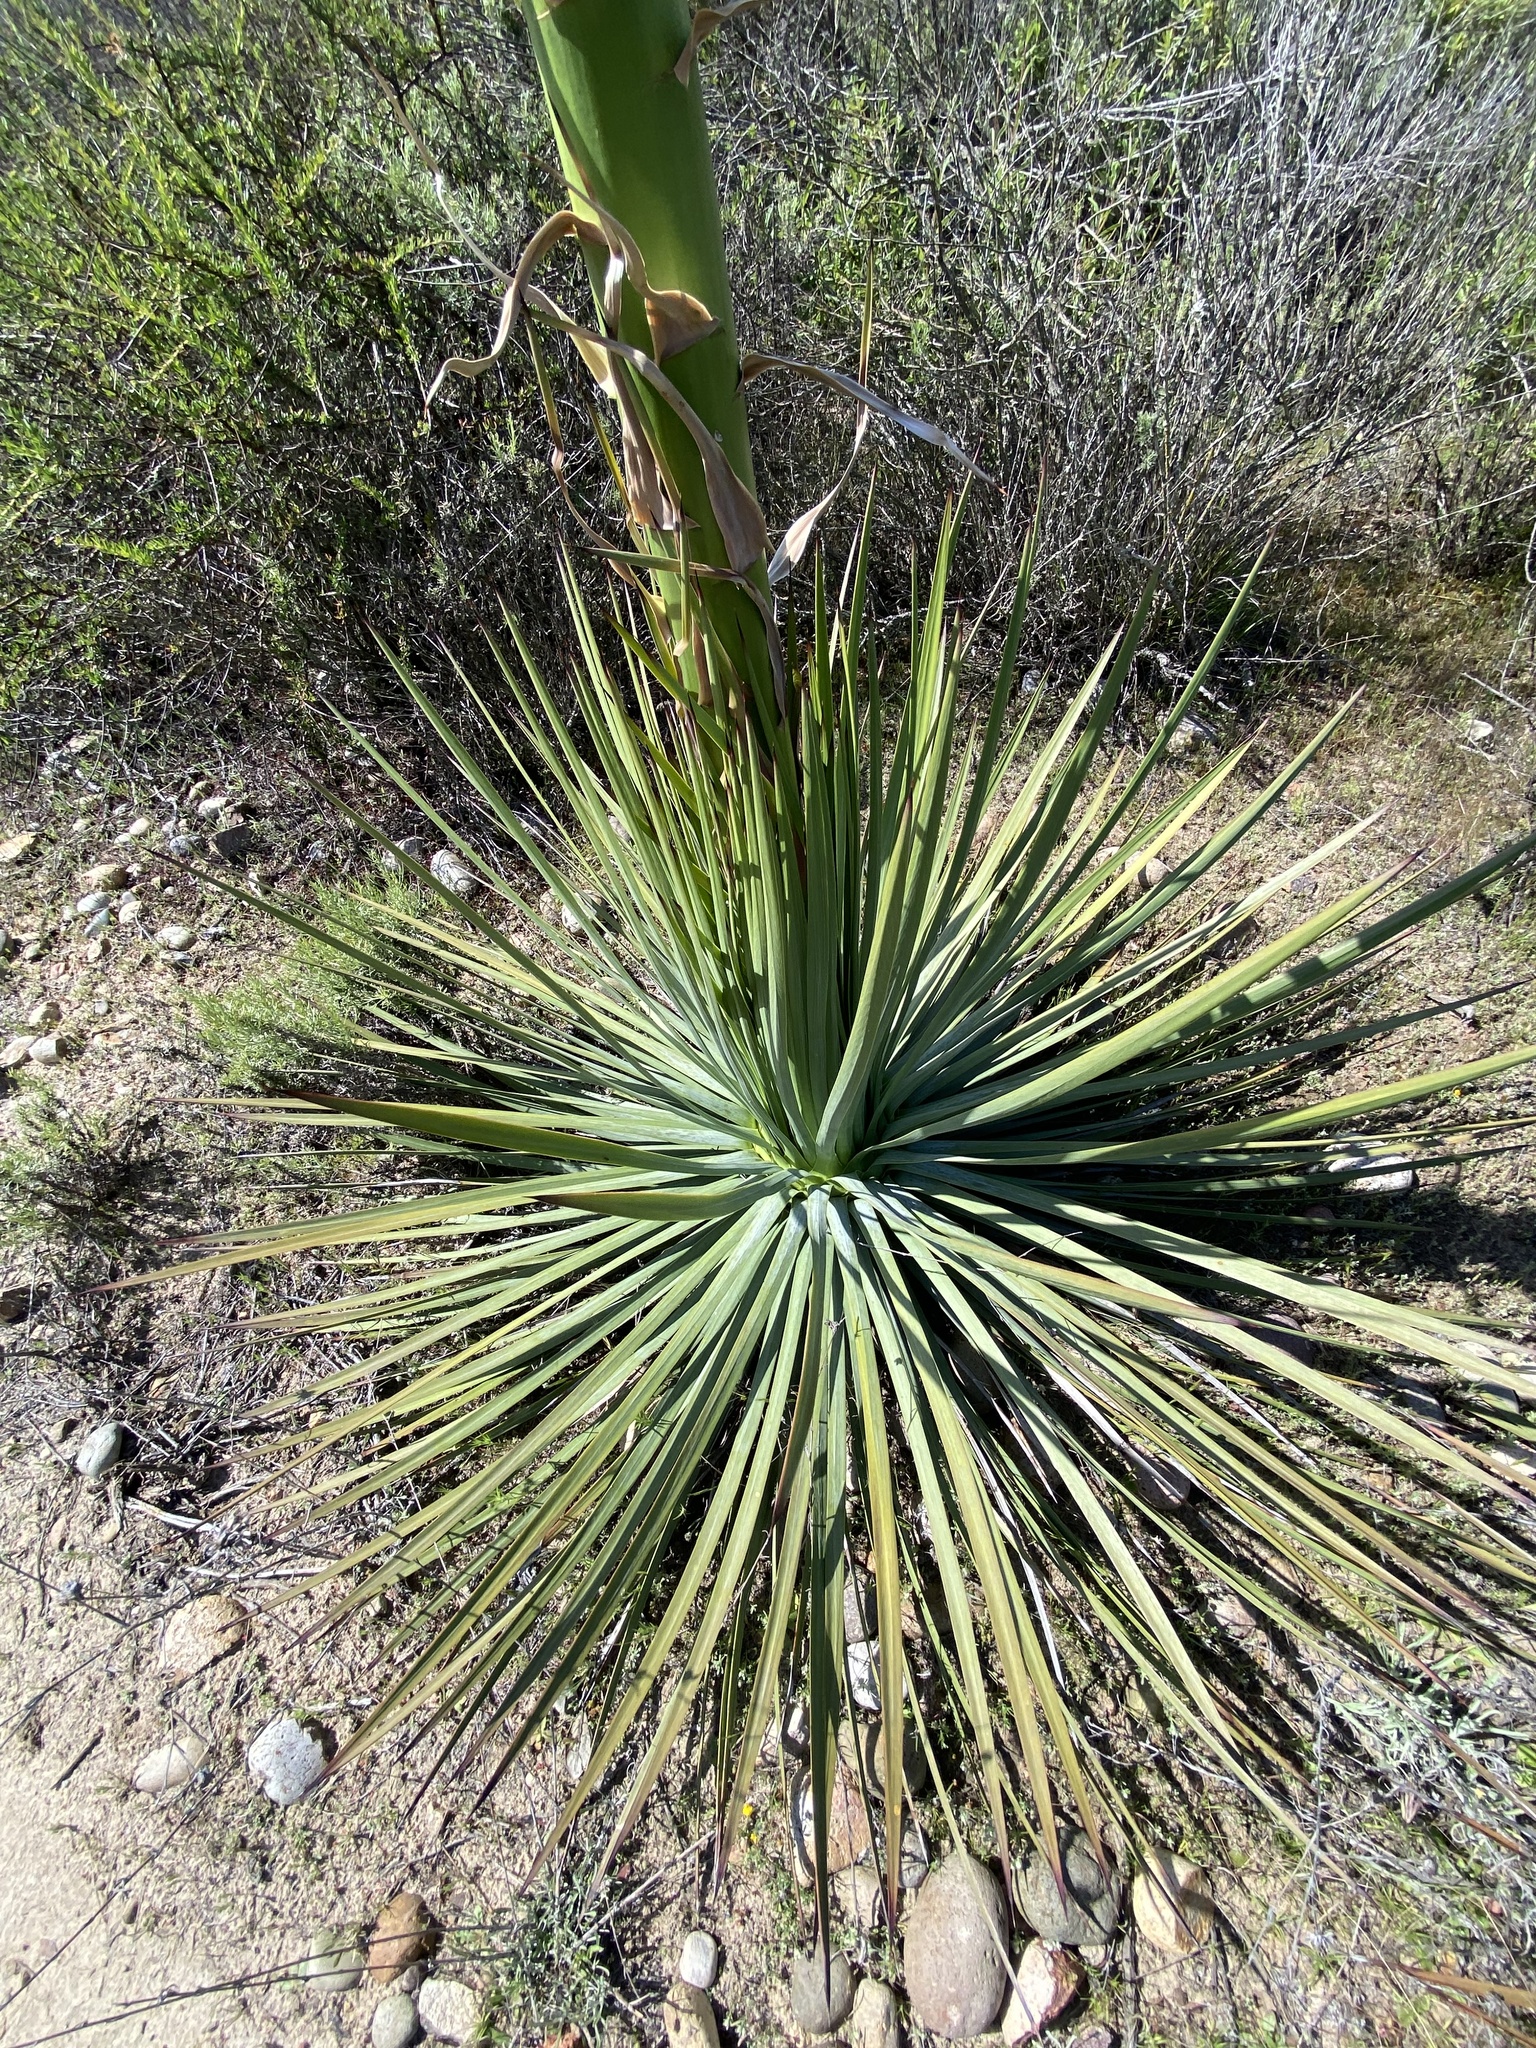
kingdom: Plantae
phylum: Tracheophyta
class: Liliopsida
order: Asparagales
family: Asparagaceae
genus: Hesperoyucca
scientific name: Hesperoyucca whipplei
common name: Our lord's-candle
